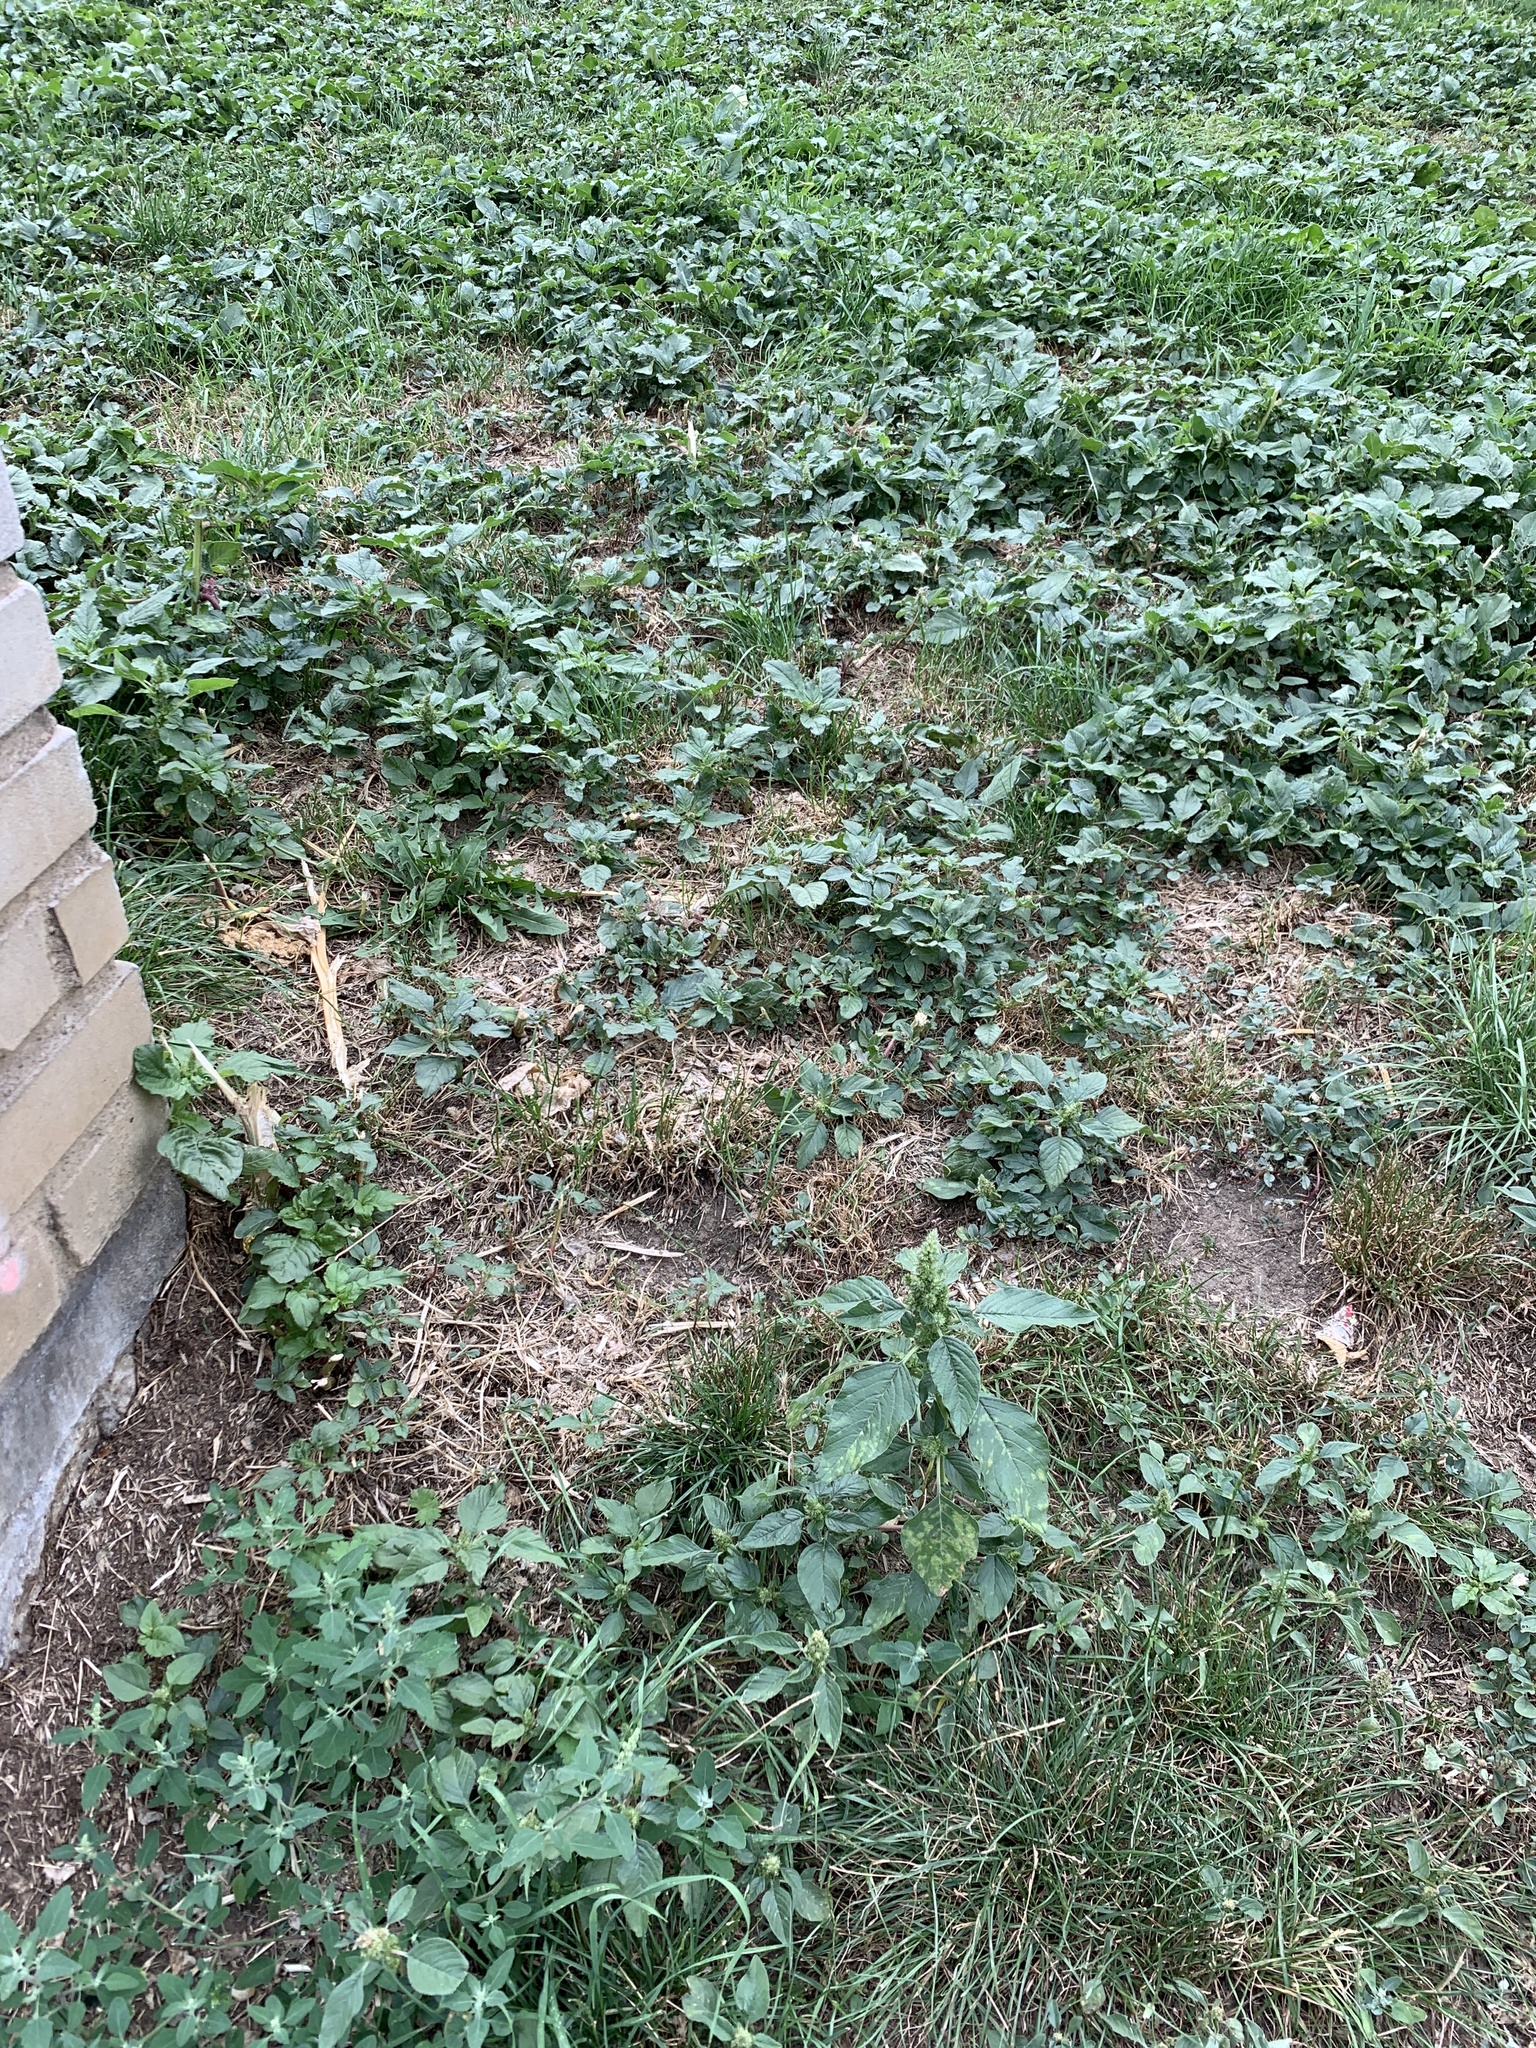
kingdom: Plantae
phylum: Tracheophyta
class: Magnoliopsida
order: Caryophyllales
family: Amaranthaceae
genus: Amaranthus
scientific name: Amaranthus retroflexus
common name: Redroot amaranth
